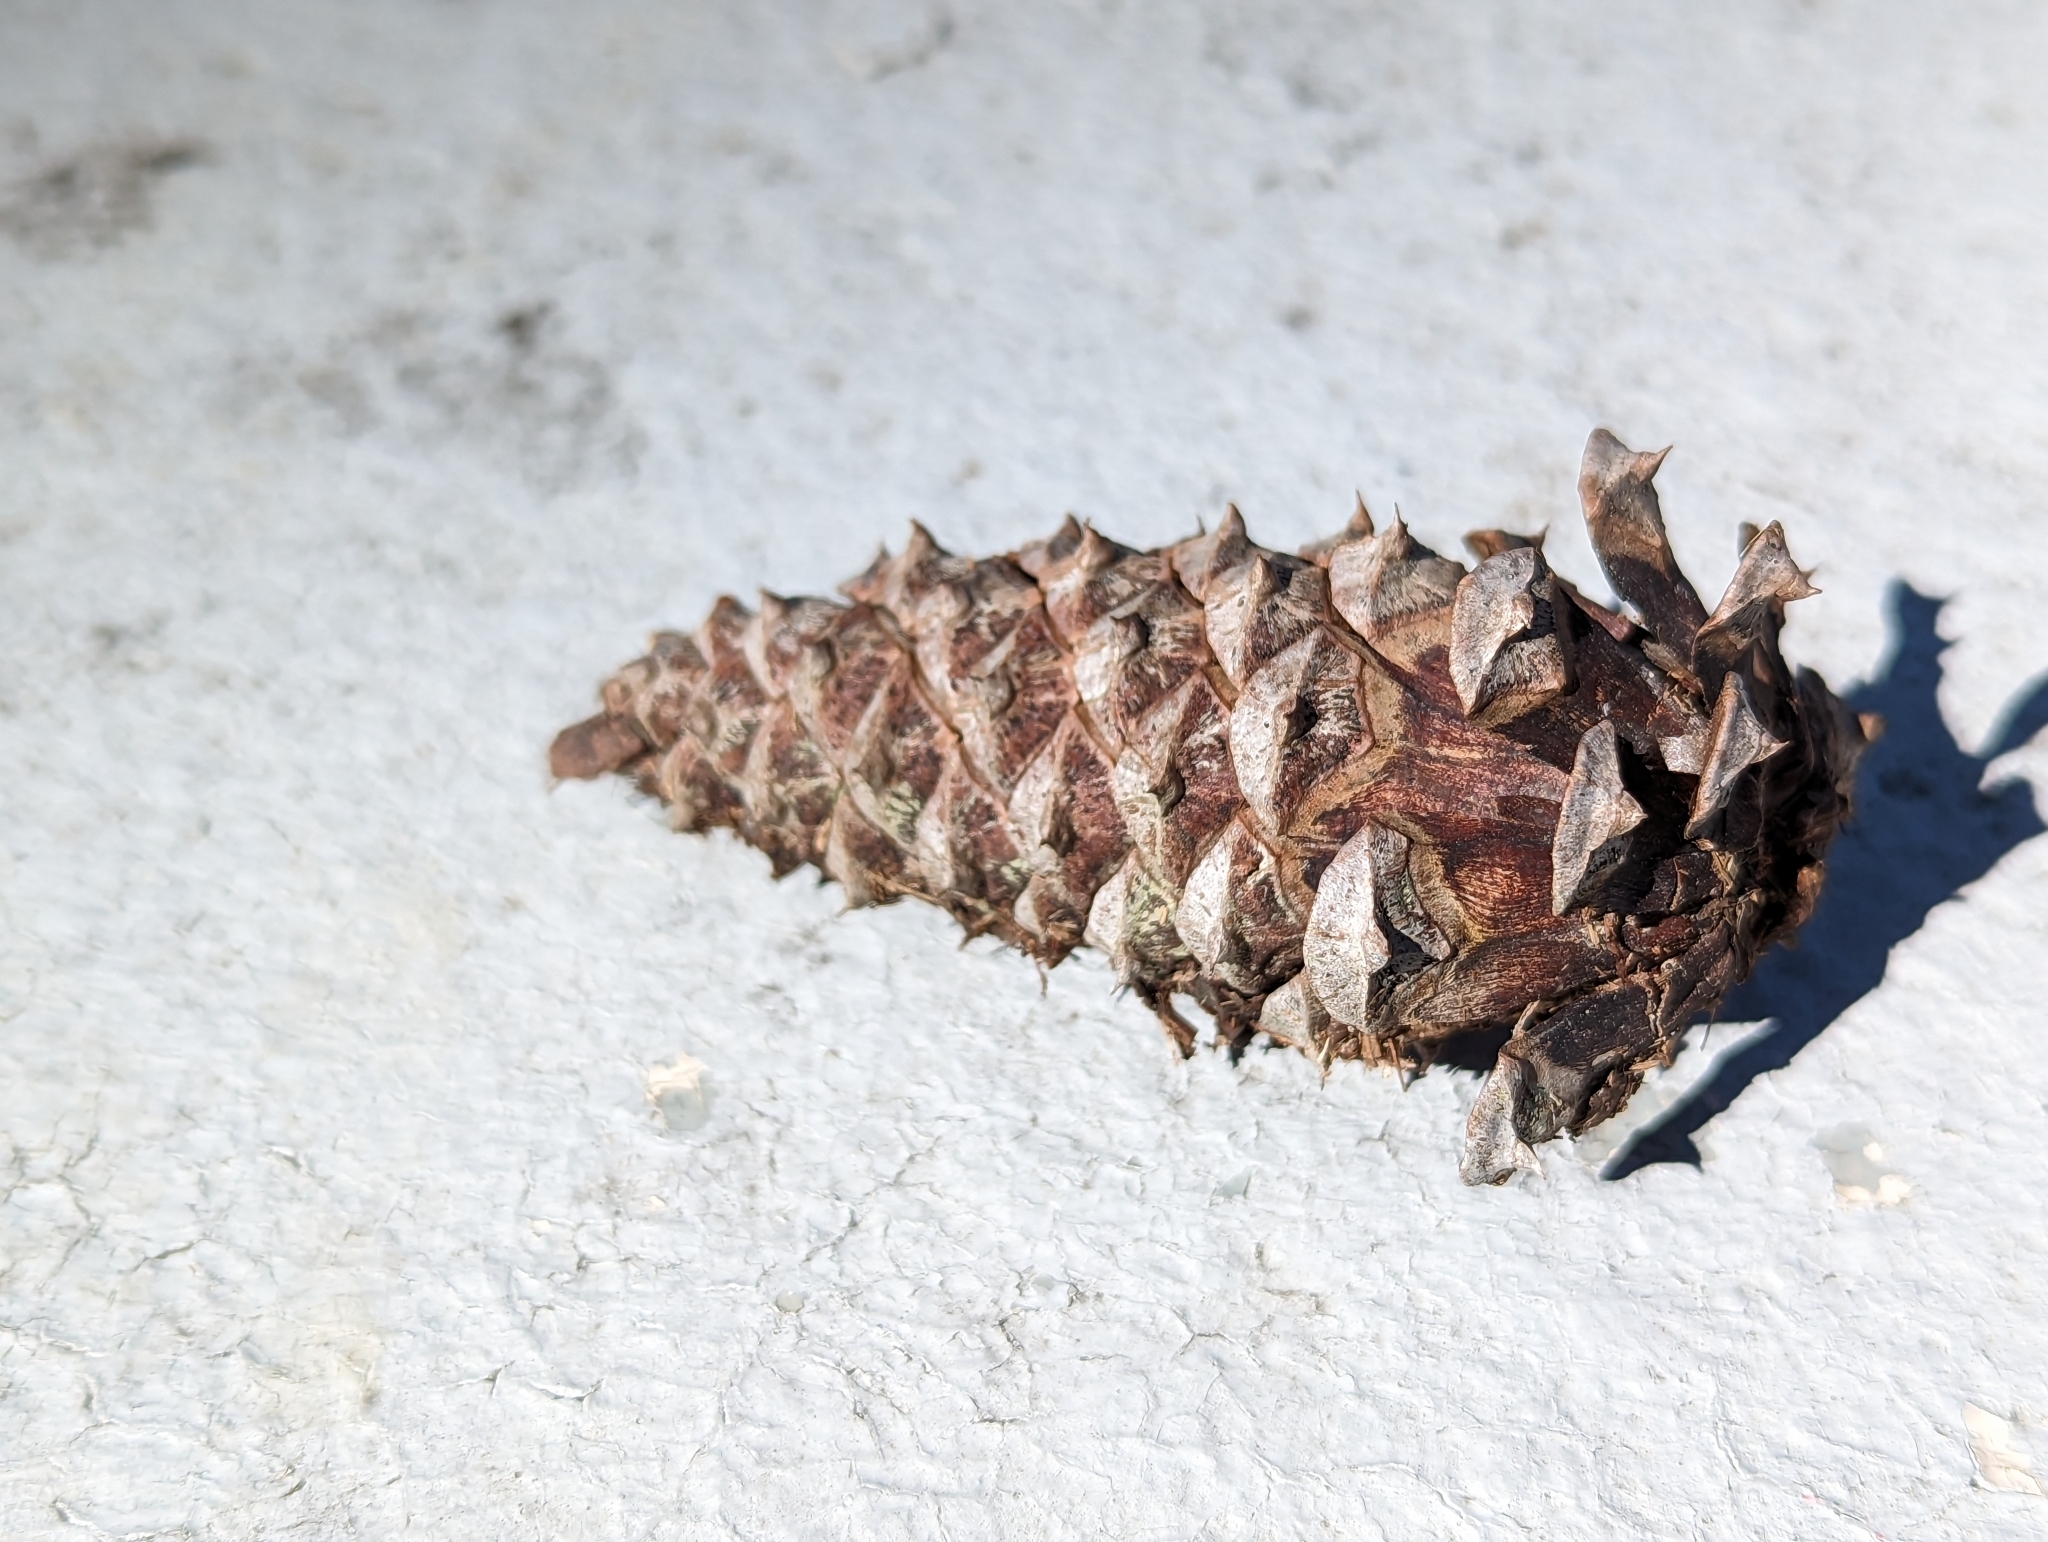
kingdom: Plantae
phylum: Tracheophyta
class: Pinopsida
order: Pinales
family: Pinaceae
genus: Pinus
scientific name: Pinus taeda
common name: Loblolly pine
